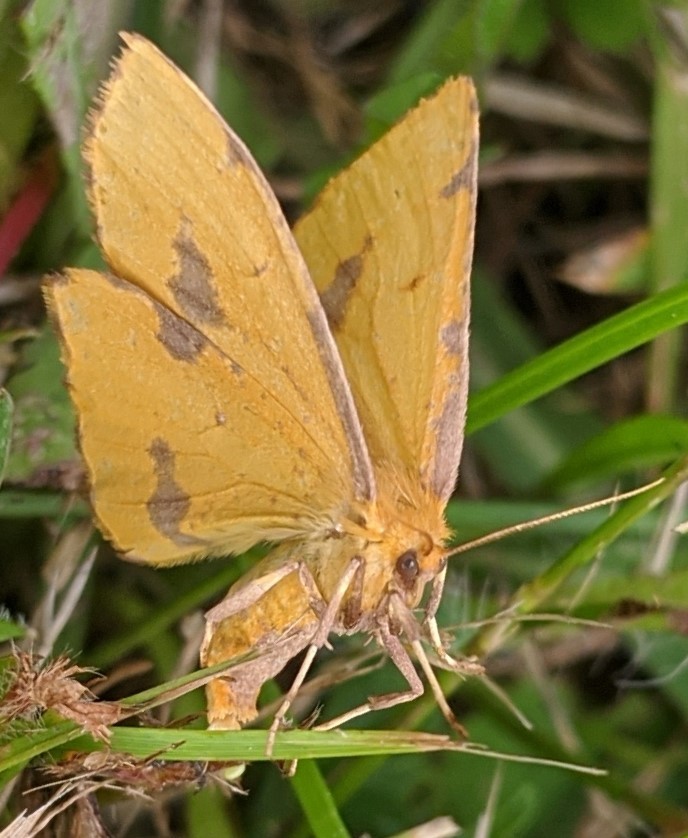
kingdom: Animalia
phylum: Arthropoda
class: Insecta
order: Lepidoptera
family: Geometridae
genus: Xanthotype
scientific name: Xanthotype
